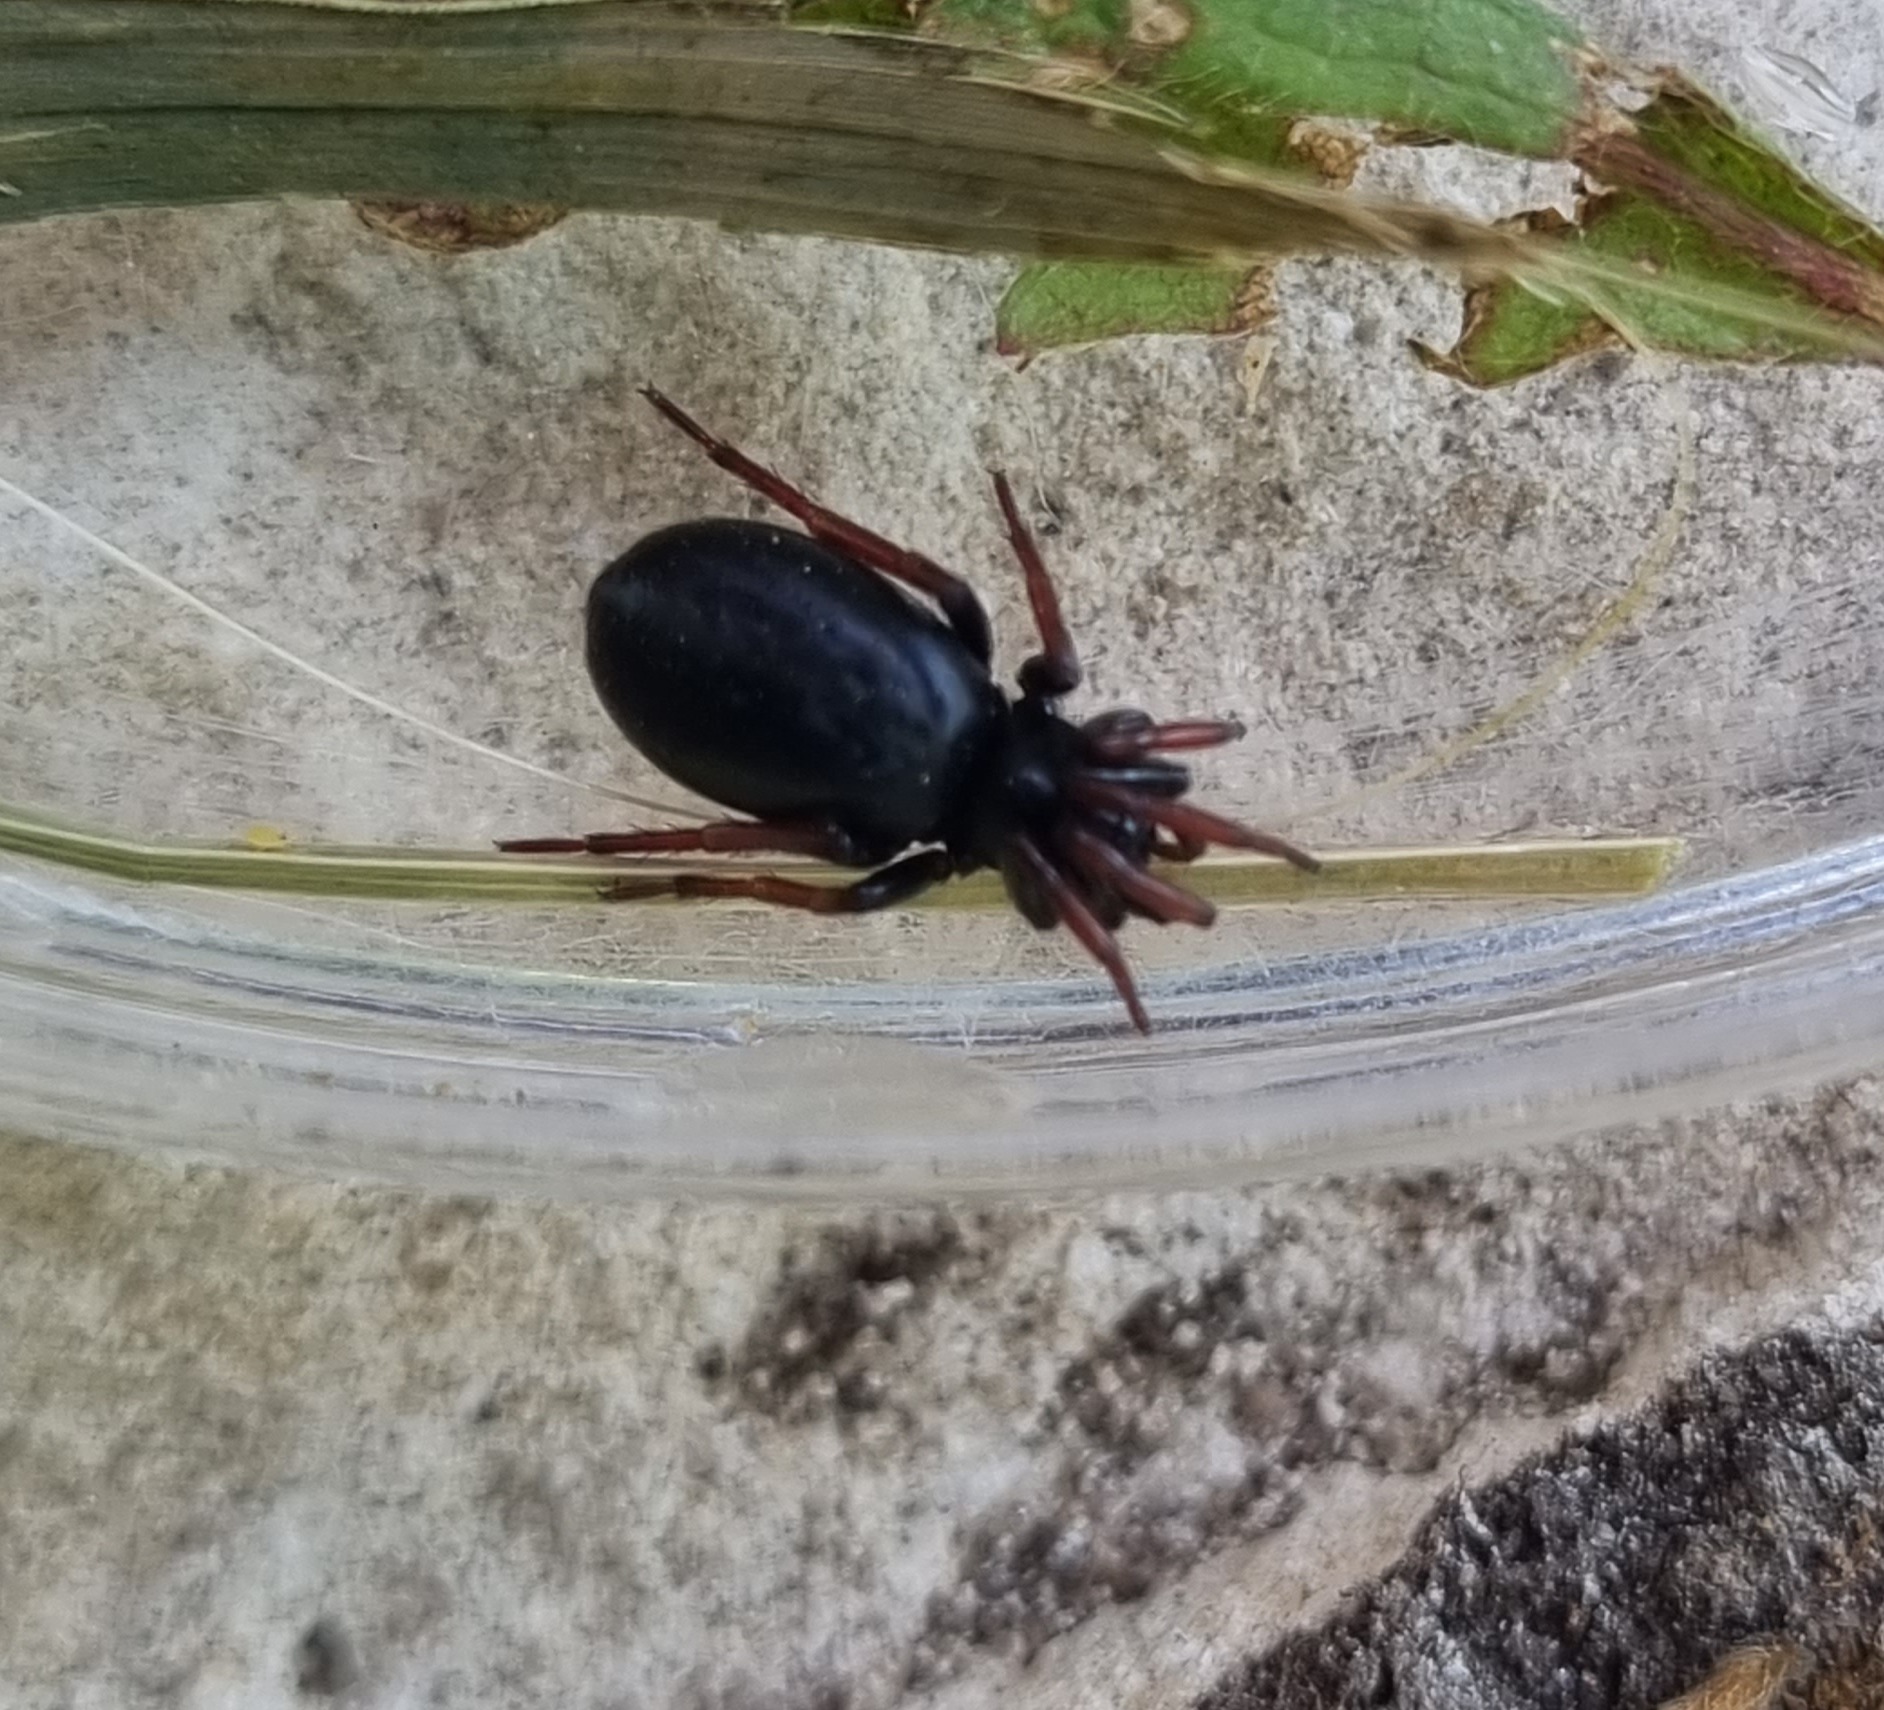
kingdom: Animalia
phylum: Arthropoda
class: Arachnida
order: Araneae
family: Gnaphosidae
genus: Trachyzelotes
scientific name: Trachyzelotes pedestris
